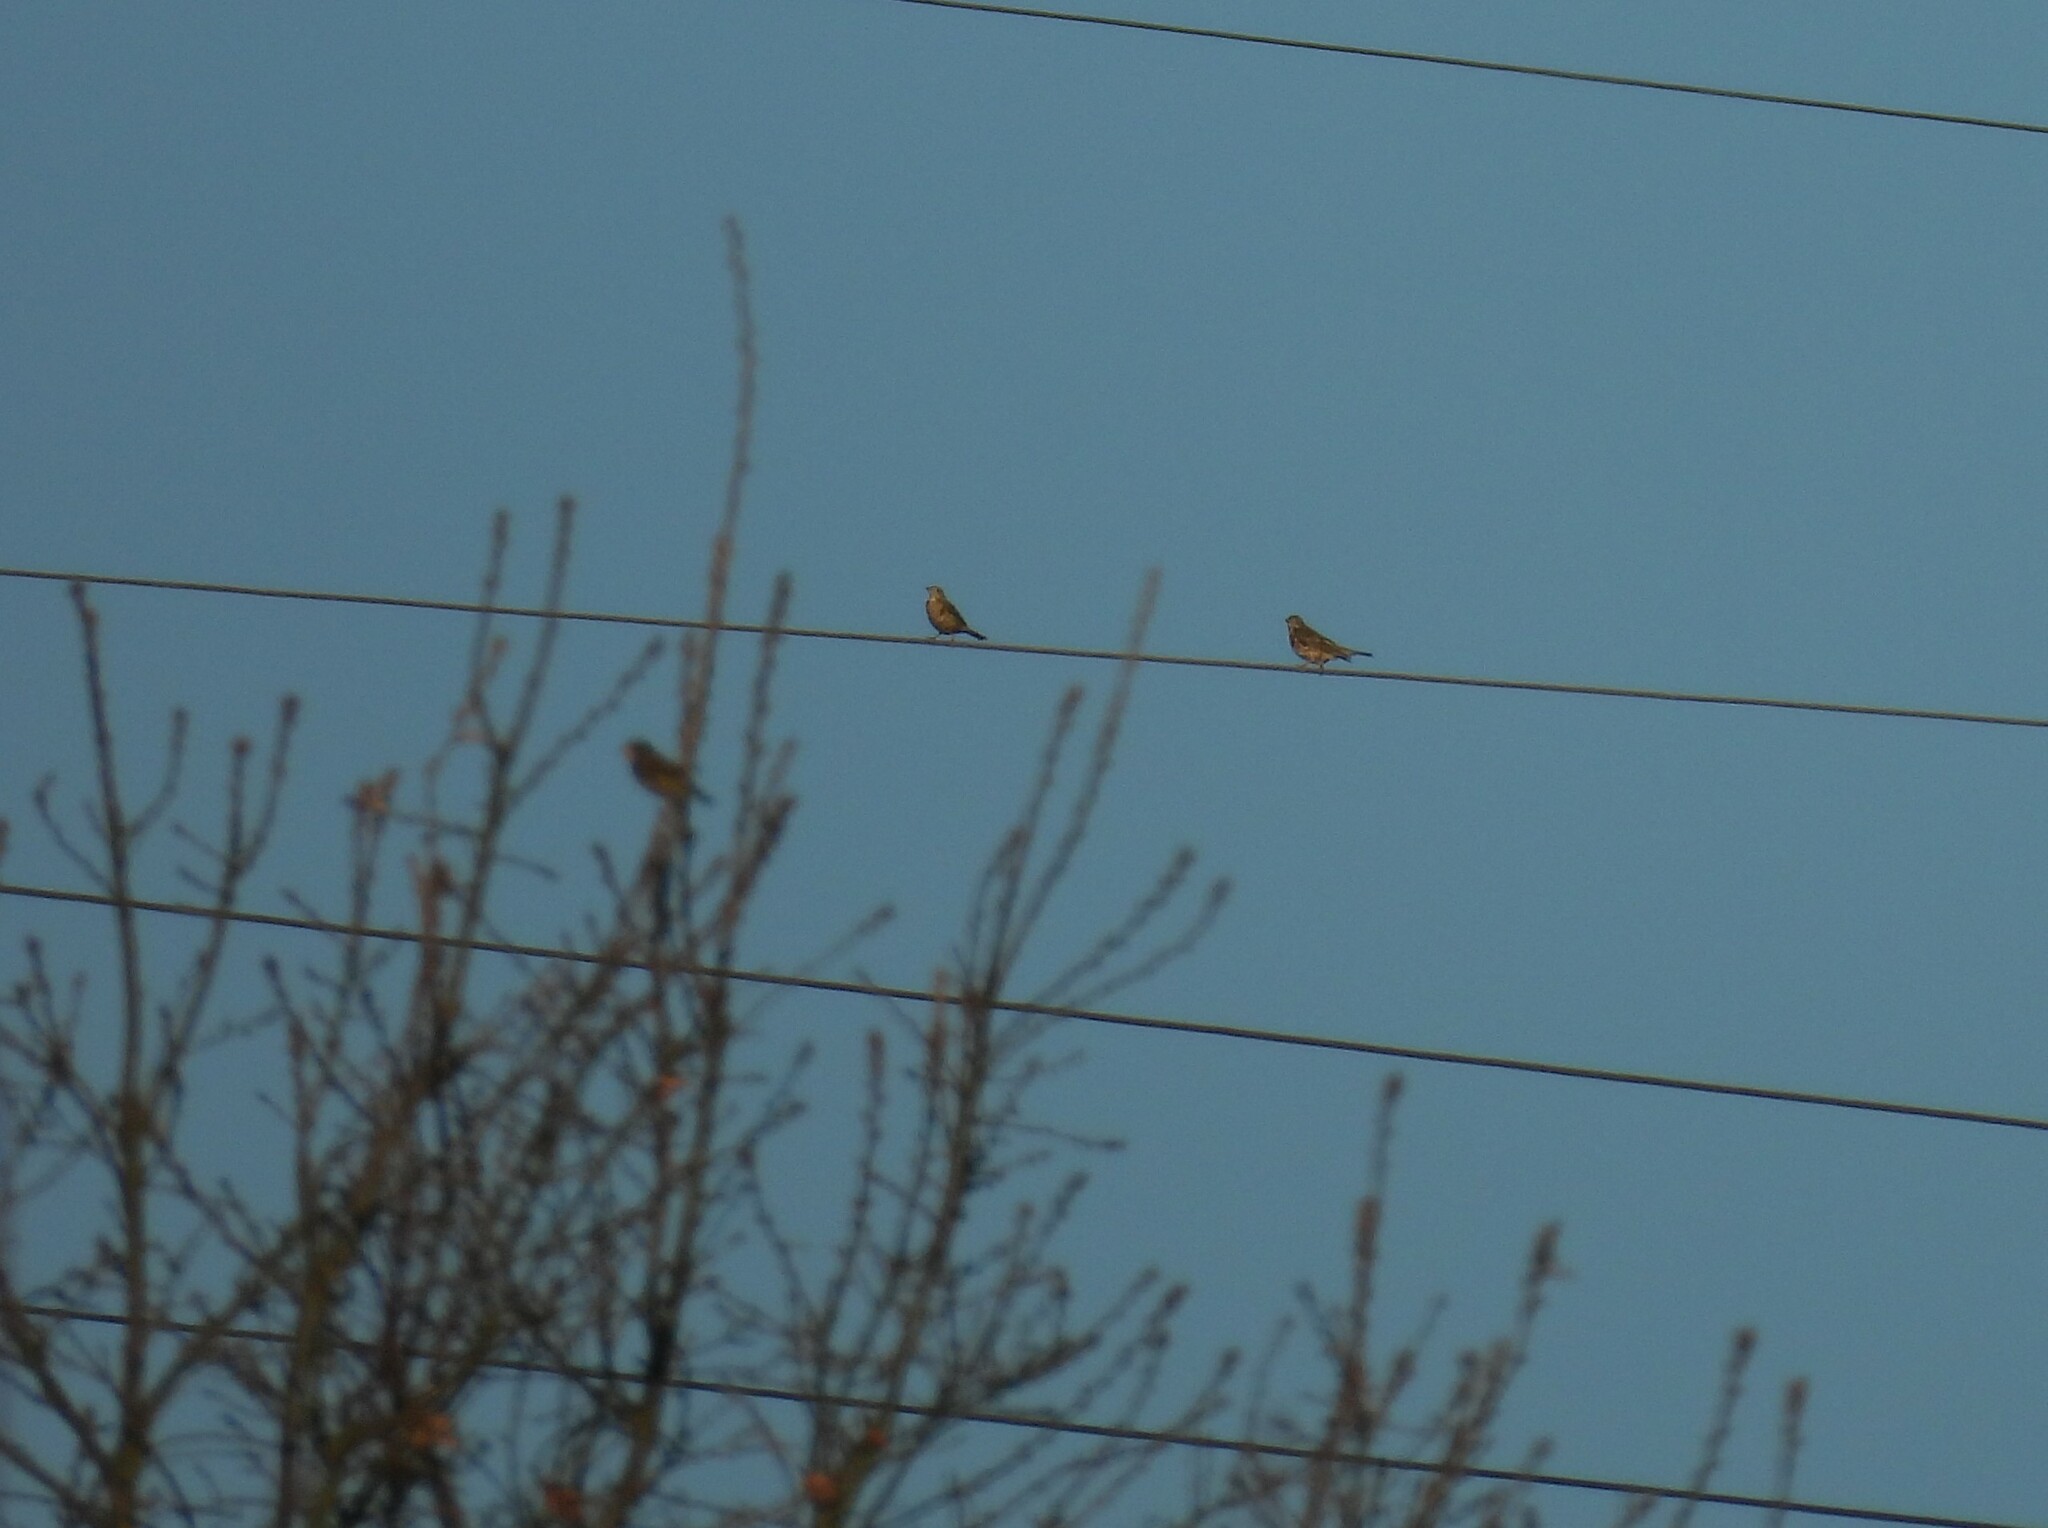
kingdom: Animalia
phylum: Chordata
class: Aves
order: Passeriformes
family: Turdidae
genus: Turdus
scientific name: Turdus viscivorus
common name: Mistle thrush
